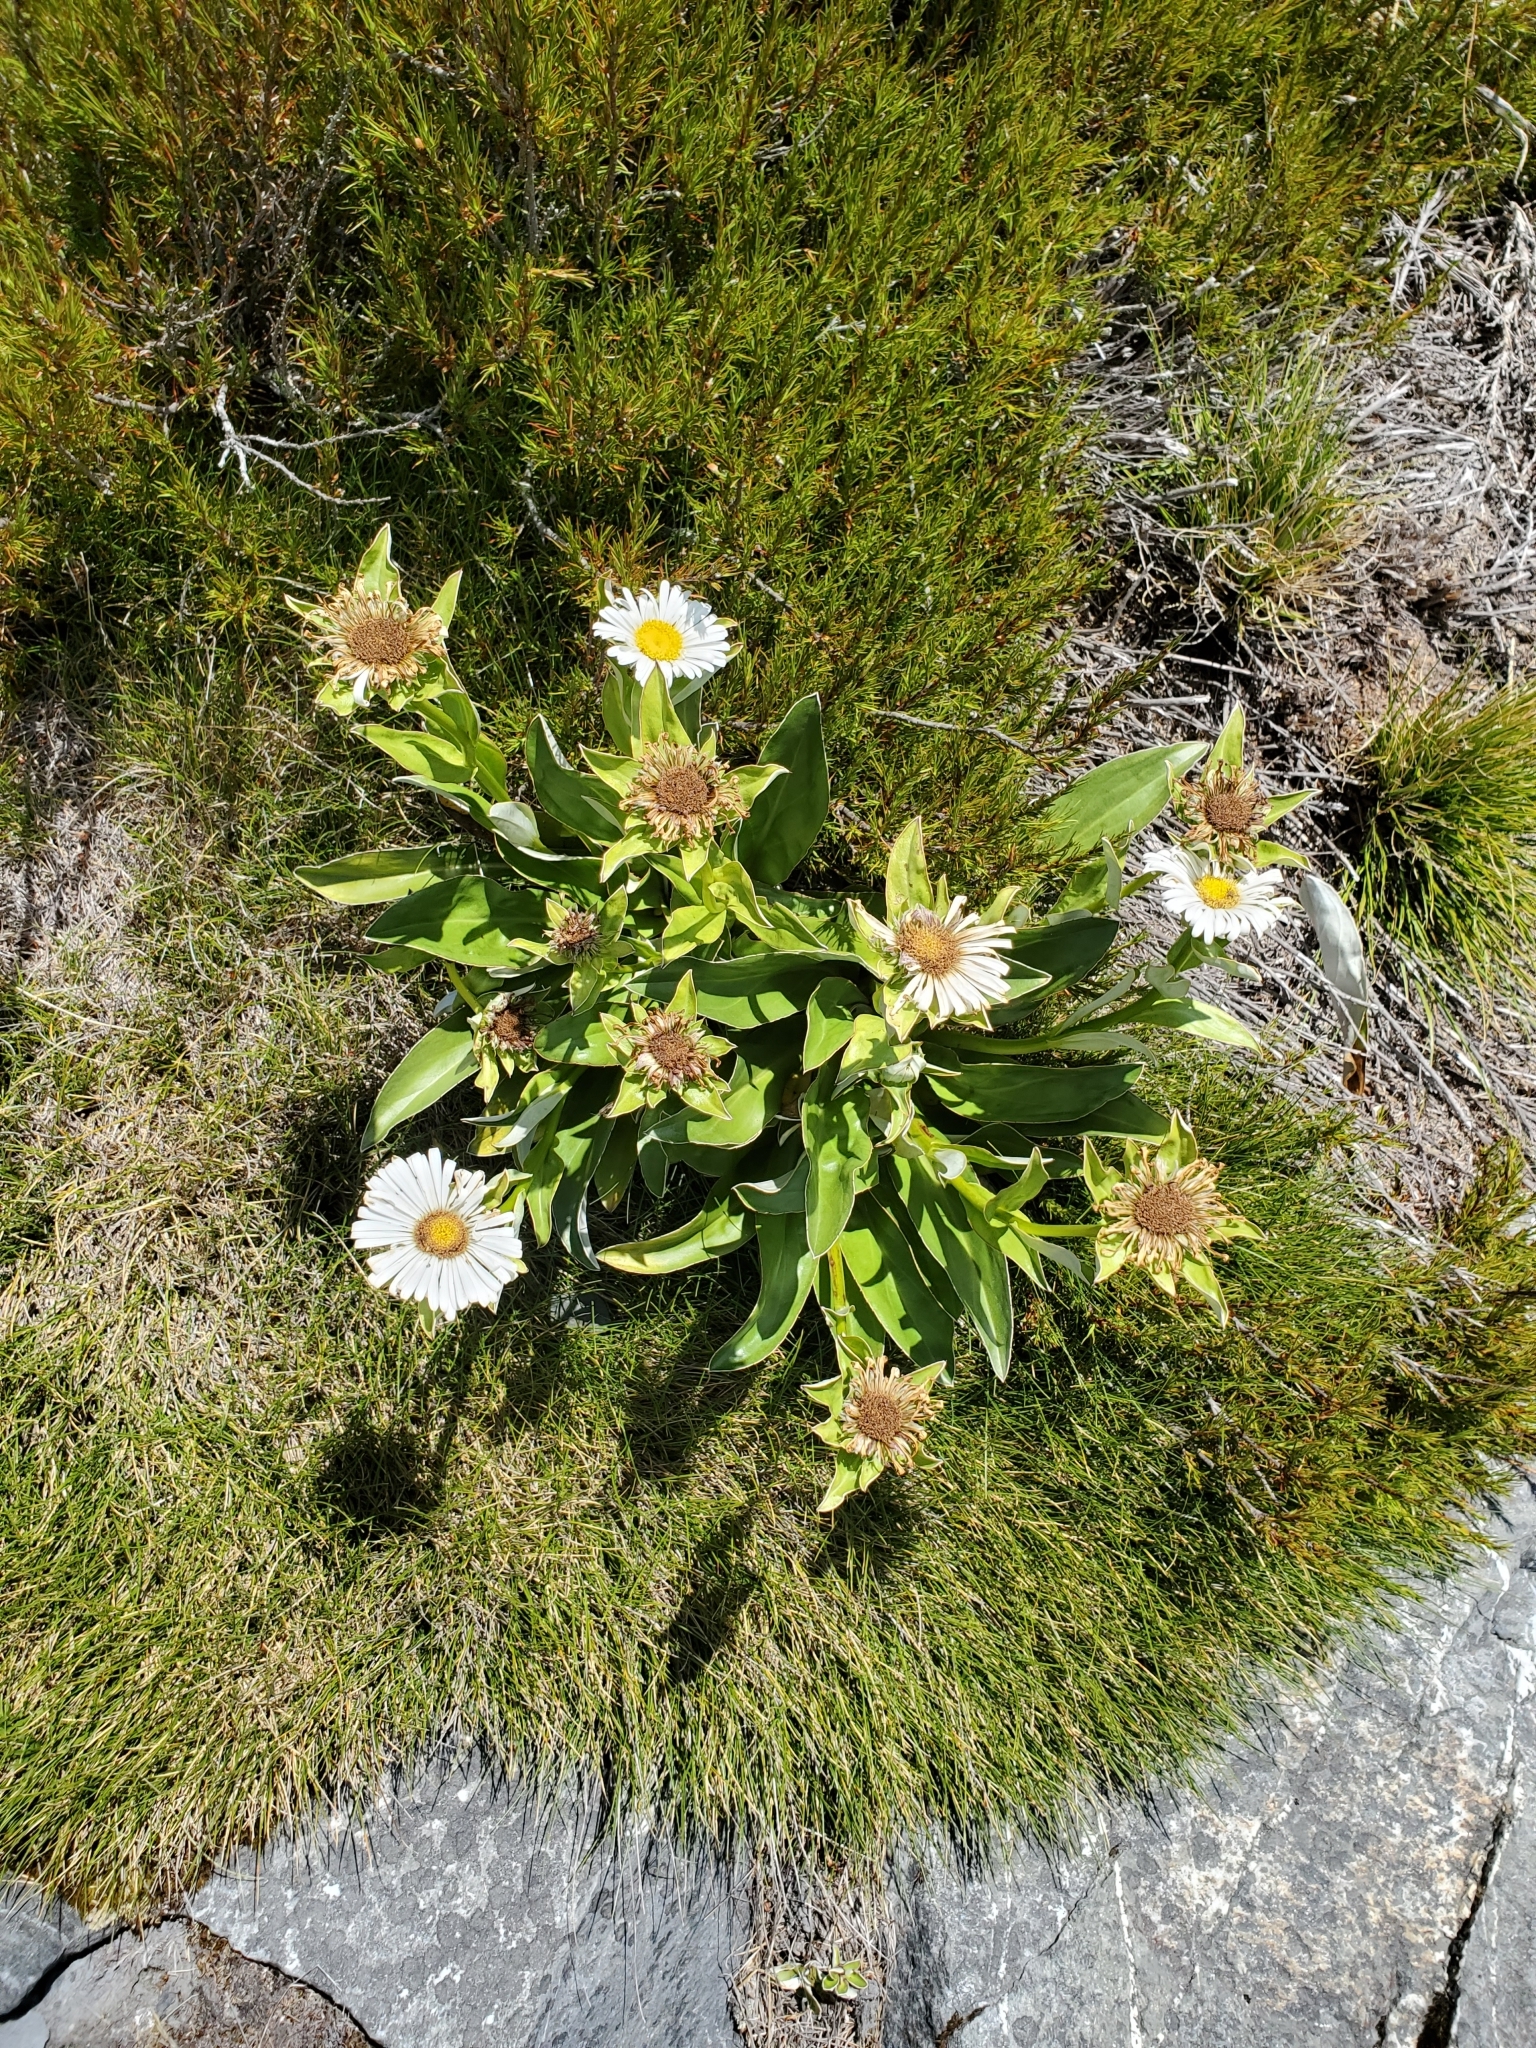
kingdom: Plantae
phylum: Tracheophyta
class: Magnoliopsida
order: Asterales
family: Asteraceae
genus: Celmisia
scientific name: Celmisia dallii
